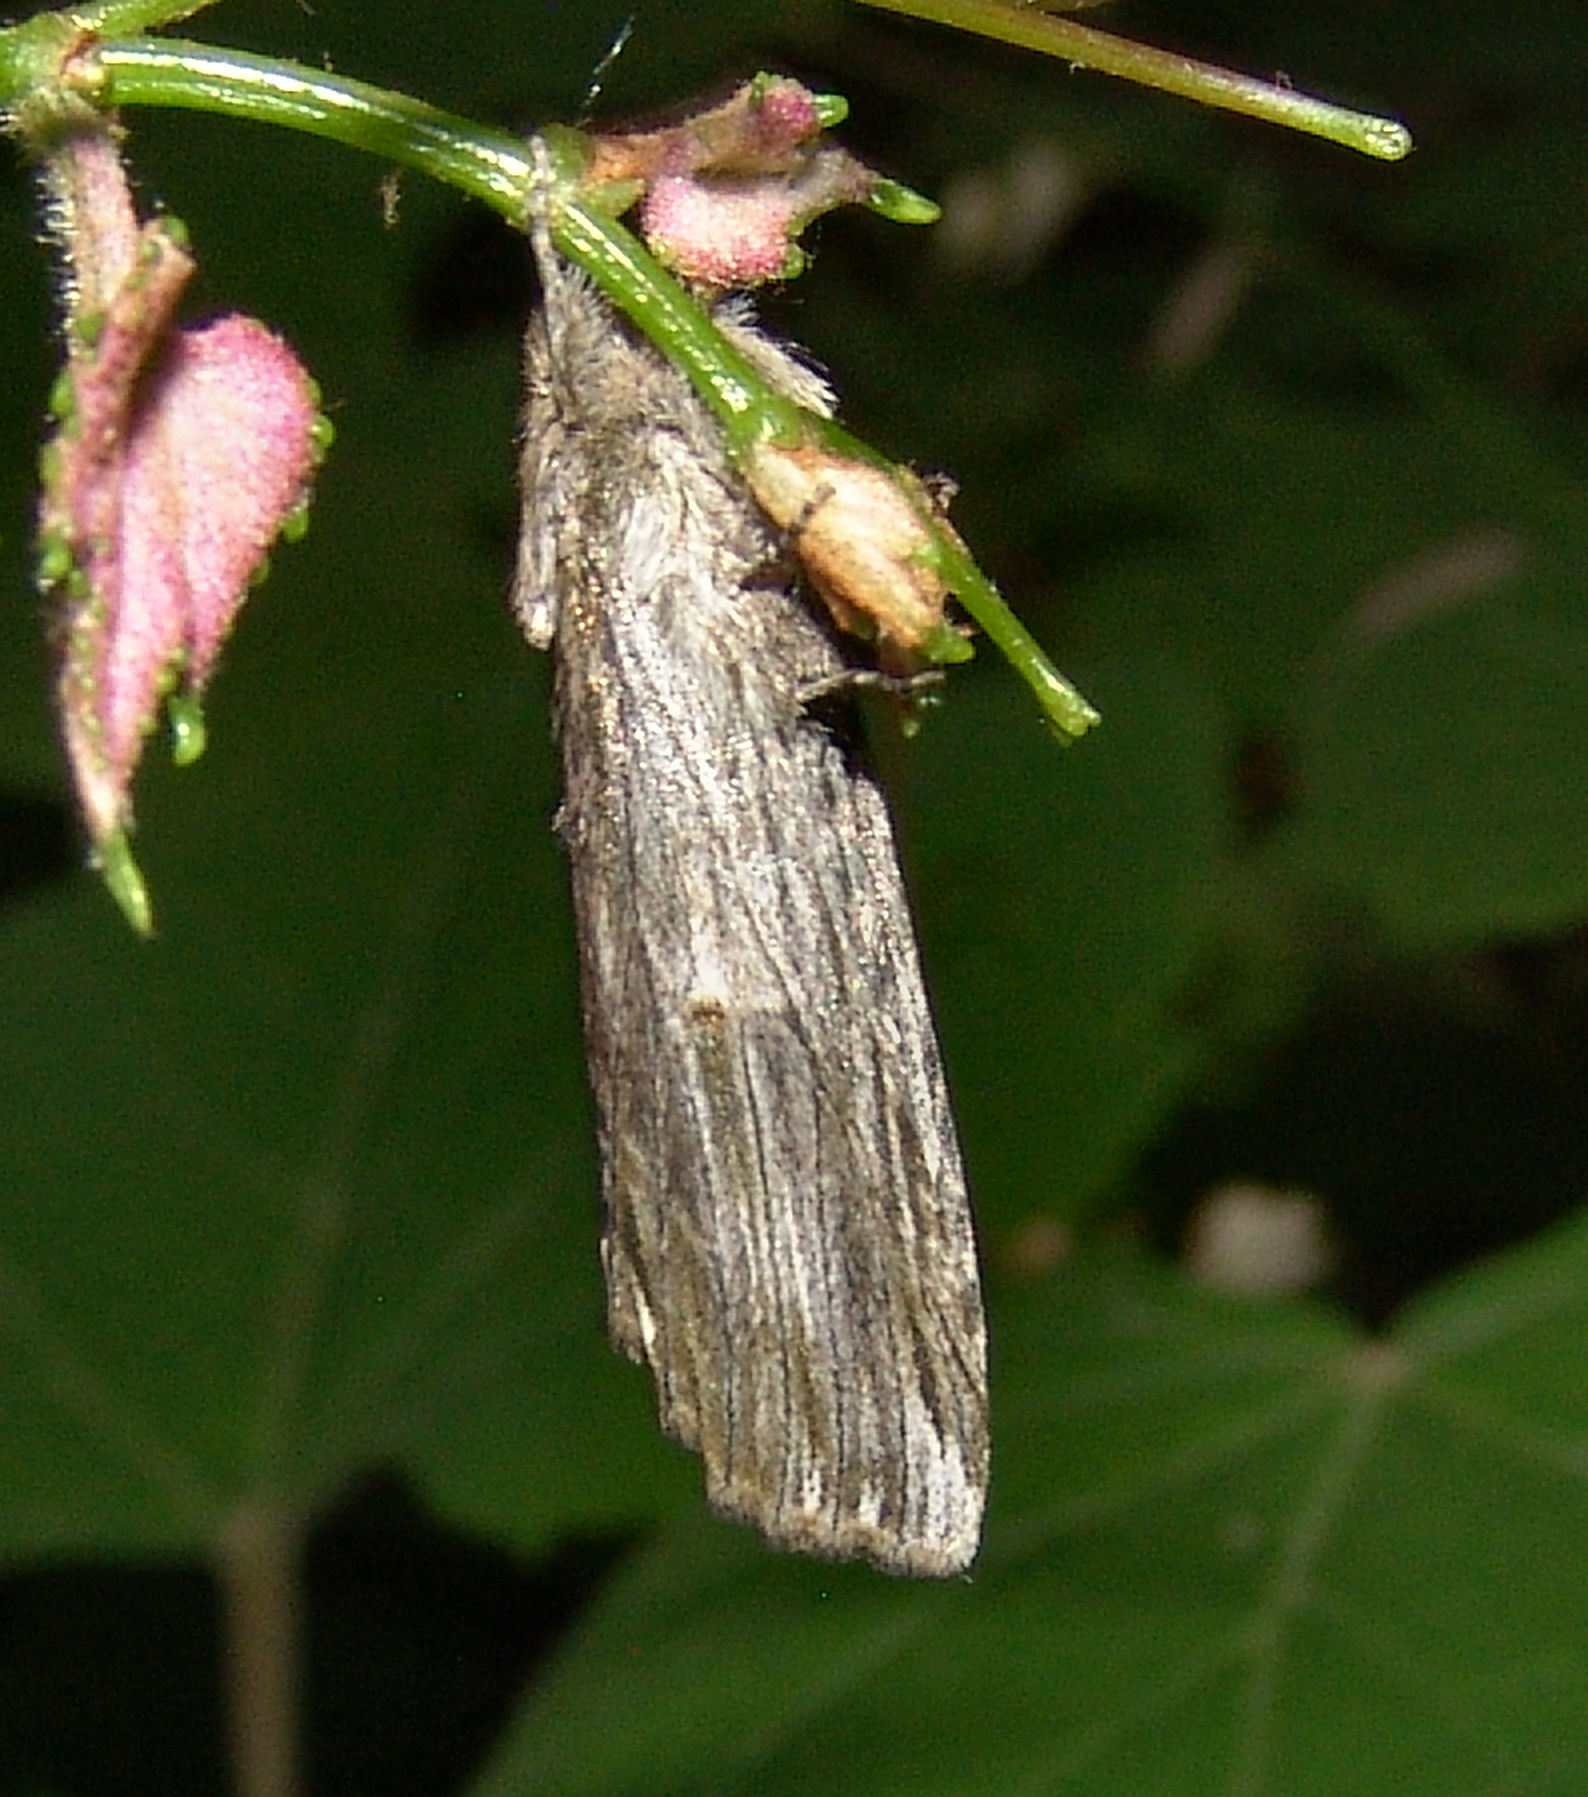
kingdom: Animalia
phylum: Arthropoda
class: Insecta
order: Lepidoptera
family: Notodontidae
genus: Oligocentria
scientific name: Oligocentria Ianassa lignicolor
